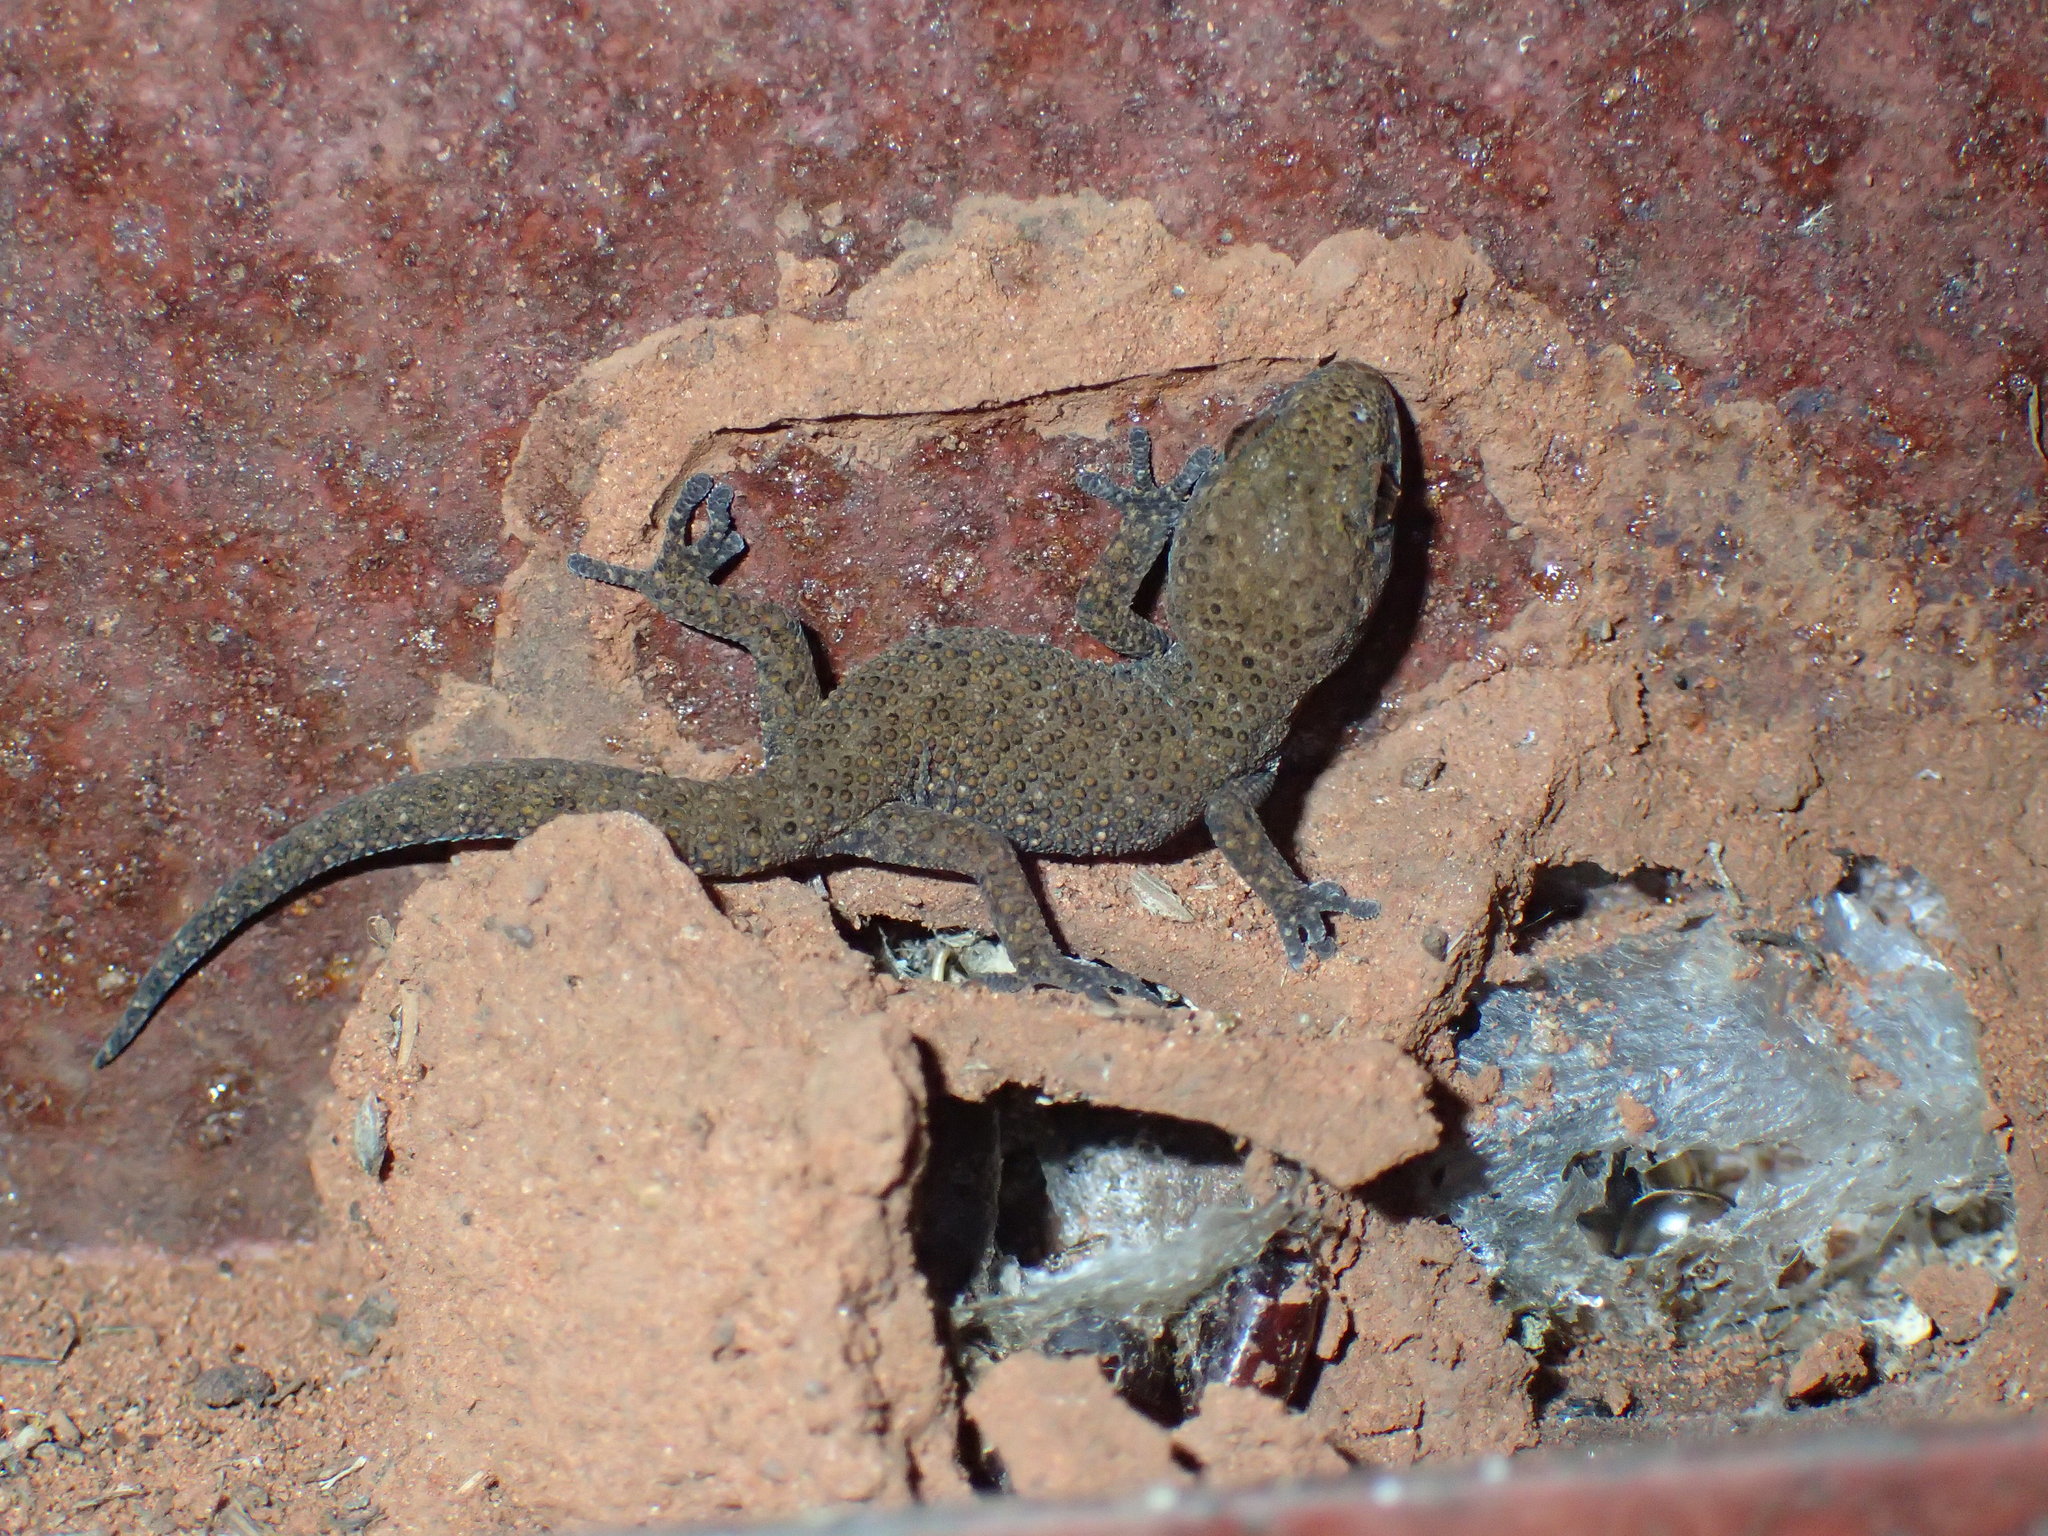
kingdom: Animalia
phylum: Chordata
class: Squamata
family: Gekkonidae
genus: Pachydactylus
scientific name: Pachydactylus capensis
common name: Cape gecko
